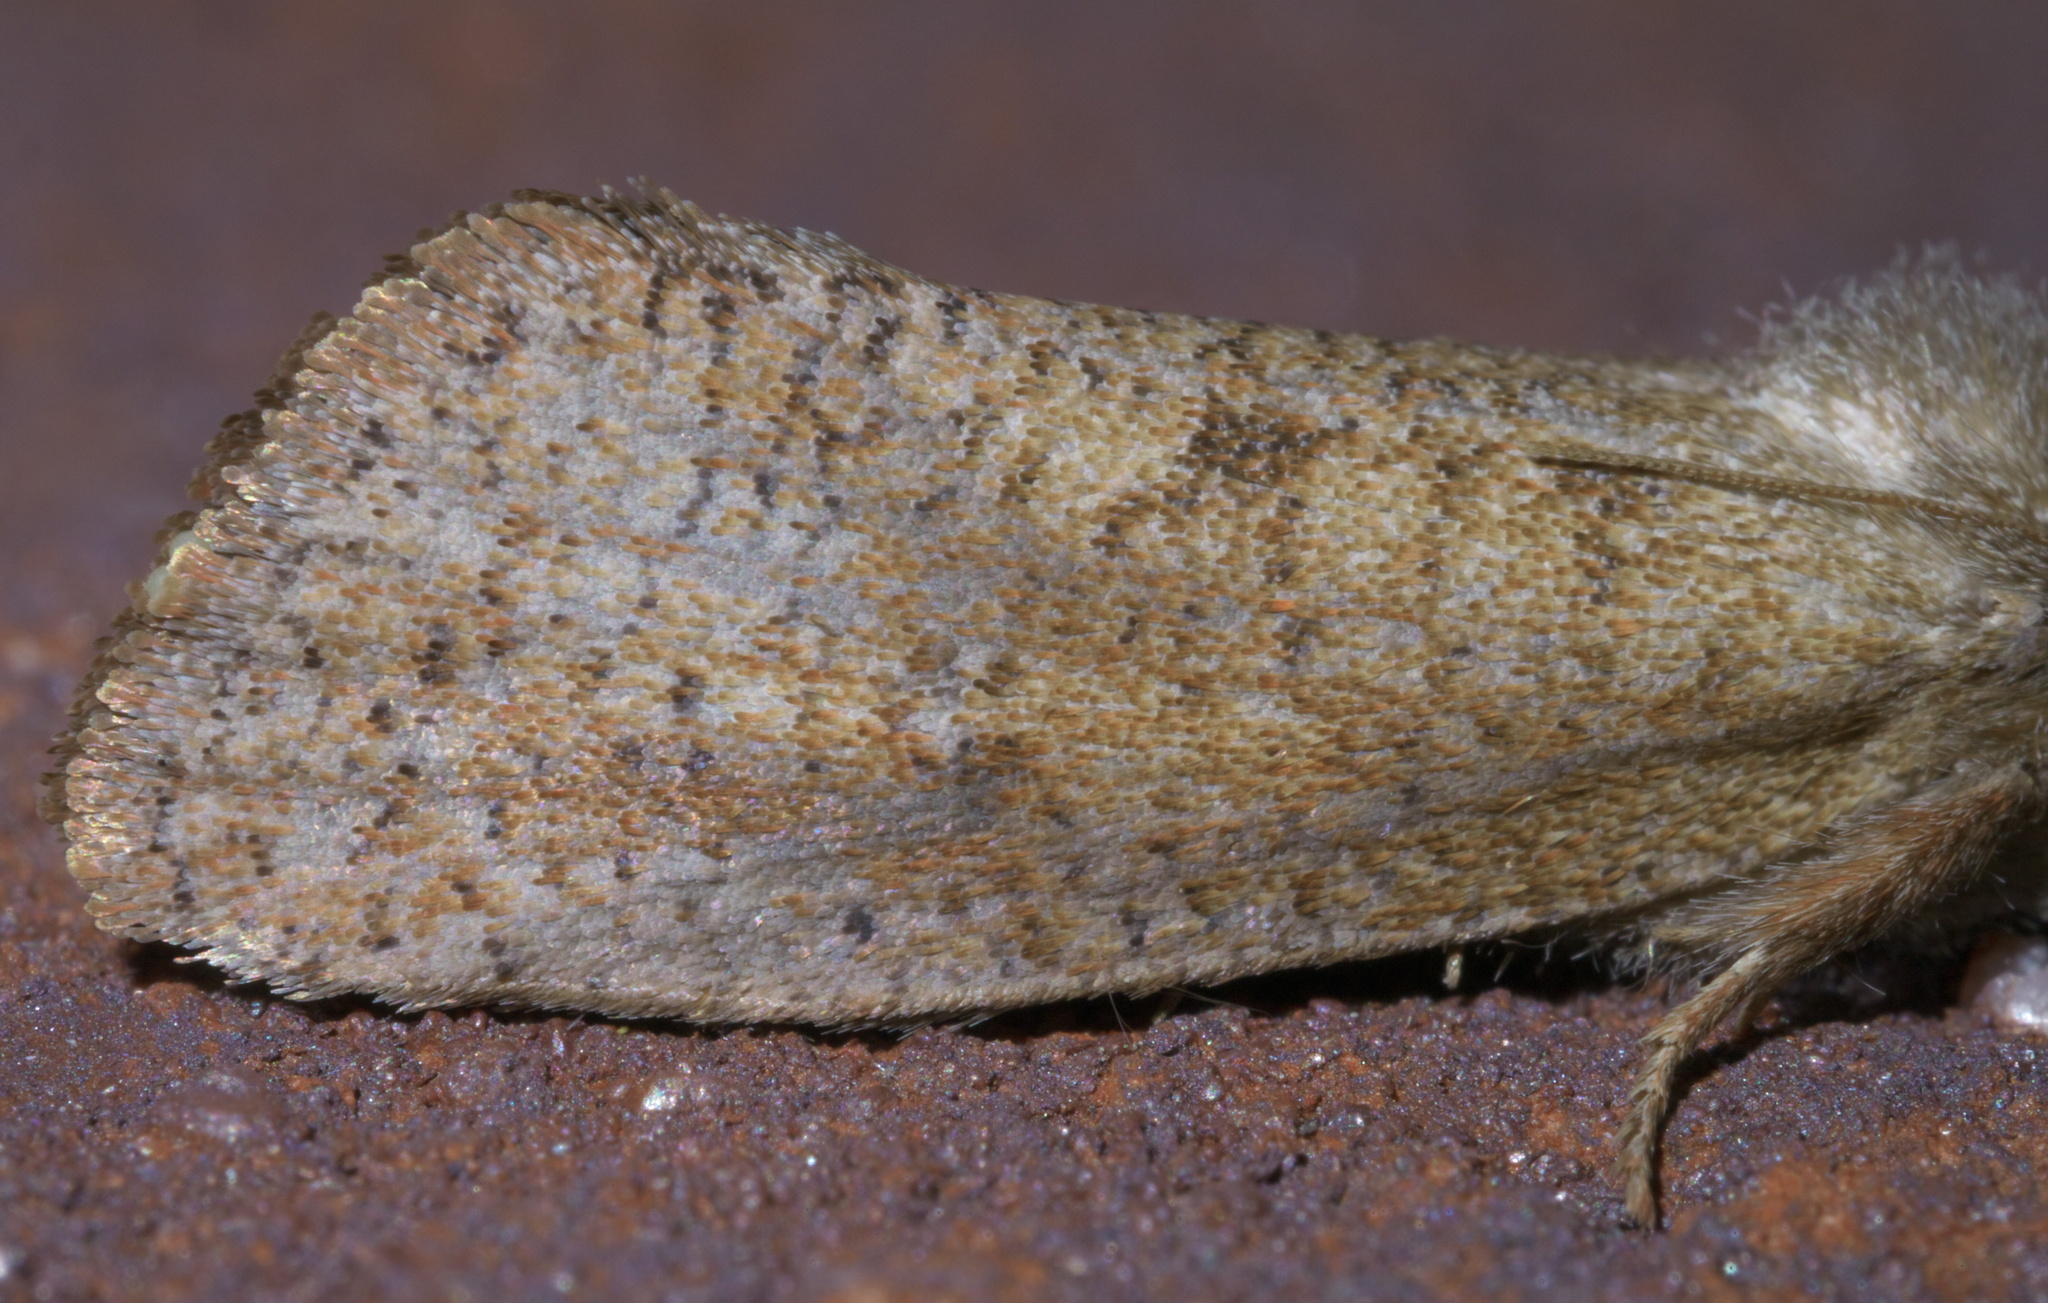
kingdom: Animalia
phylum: Arthropoda
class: Insecta
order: Lepidoptera
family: Tineidae
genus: Acrolophus
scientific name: Acrolophus plumifrontella
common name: Eastern grass tubeworm moth
